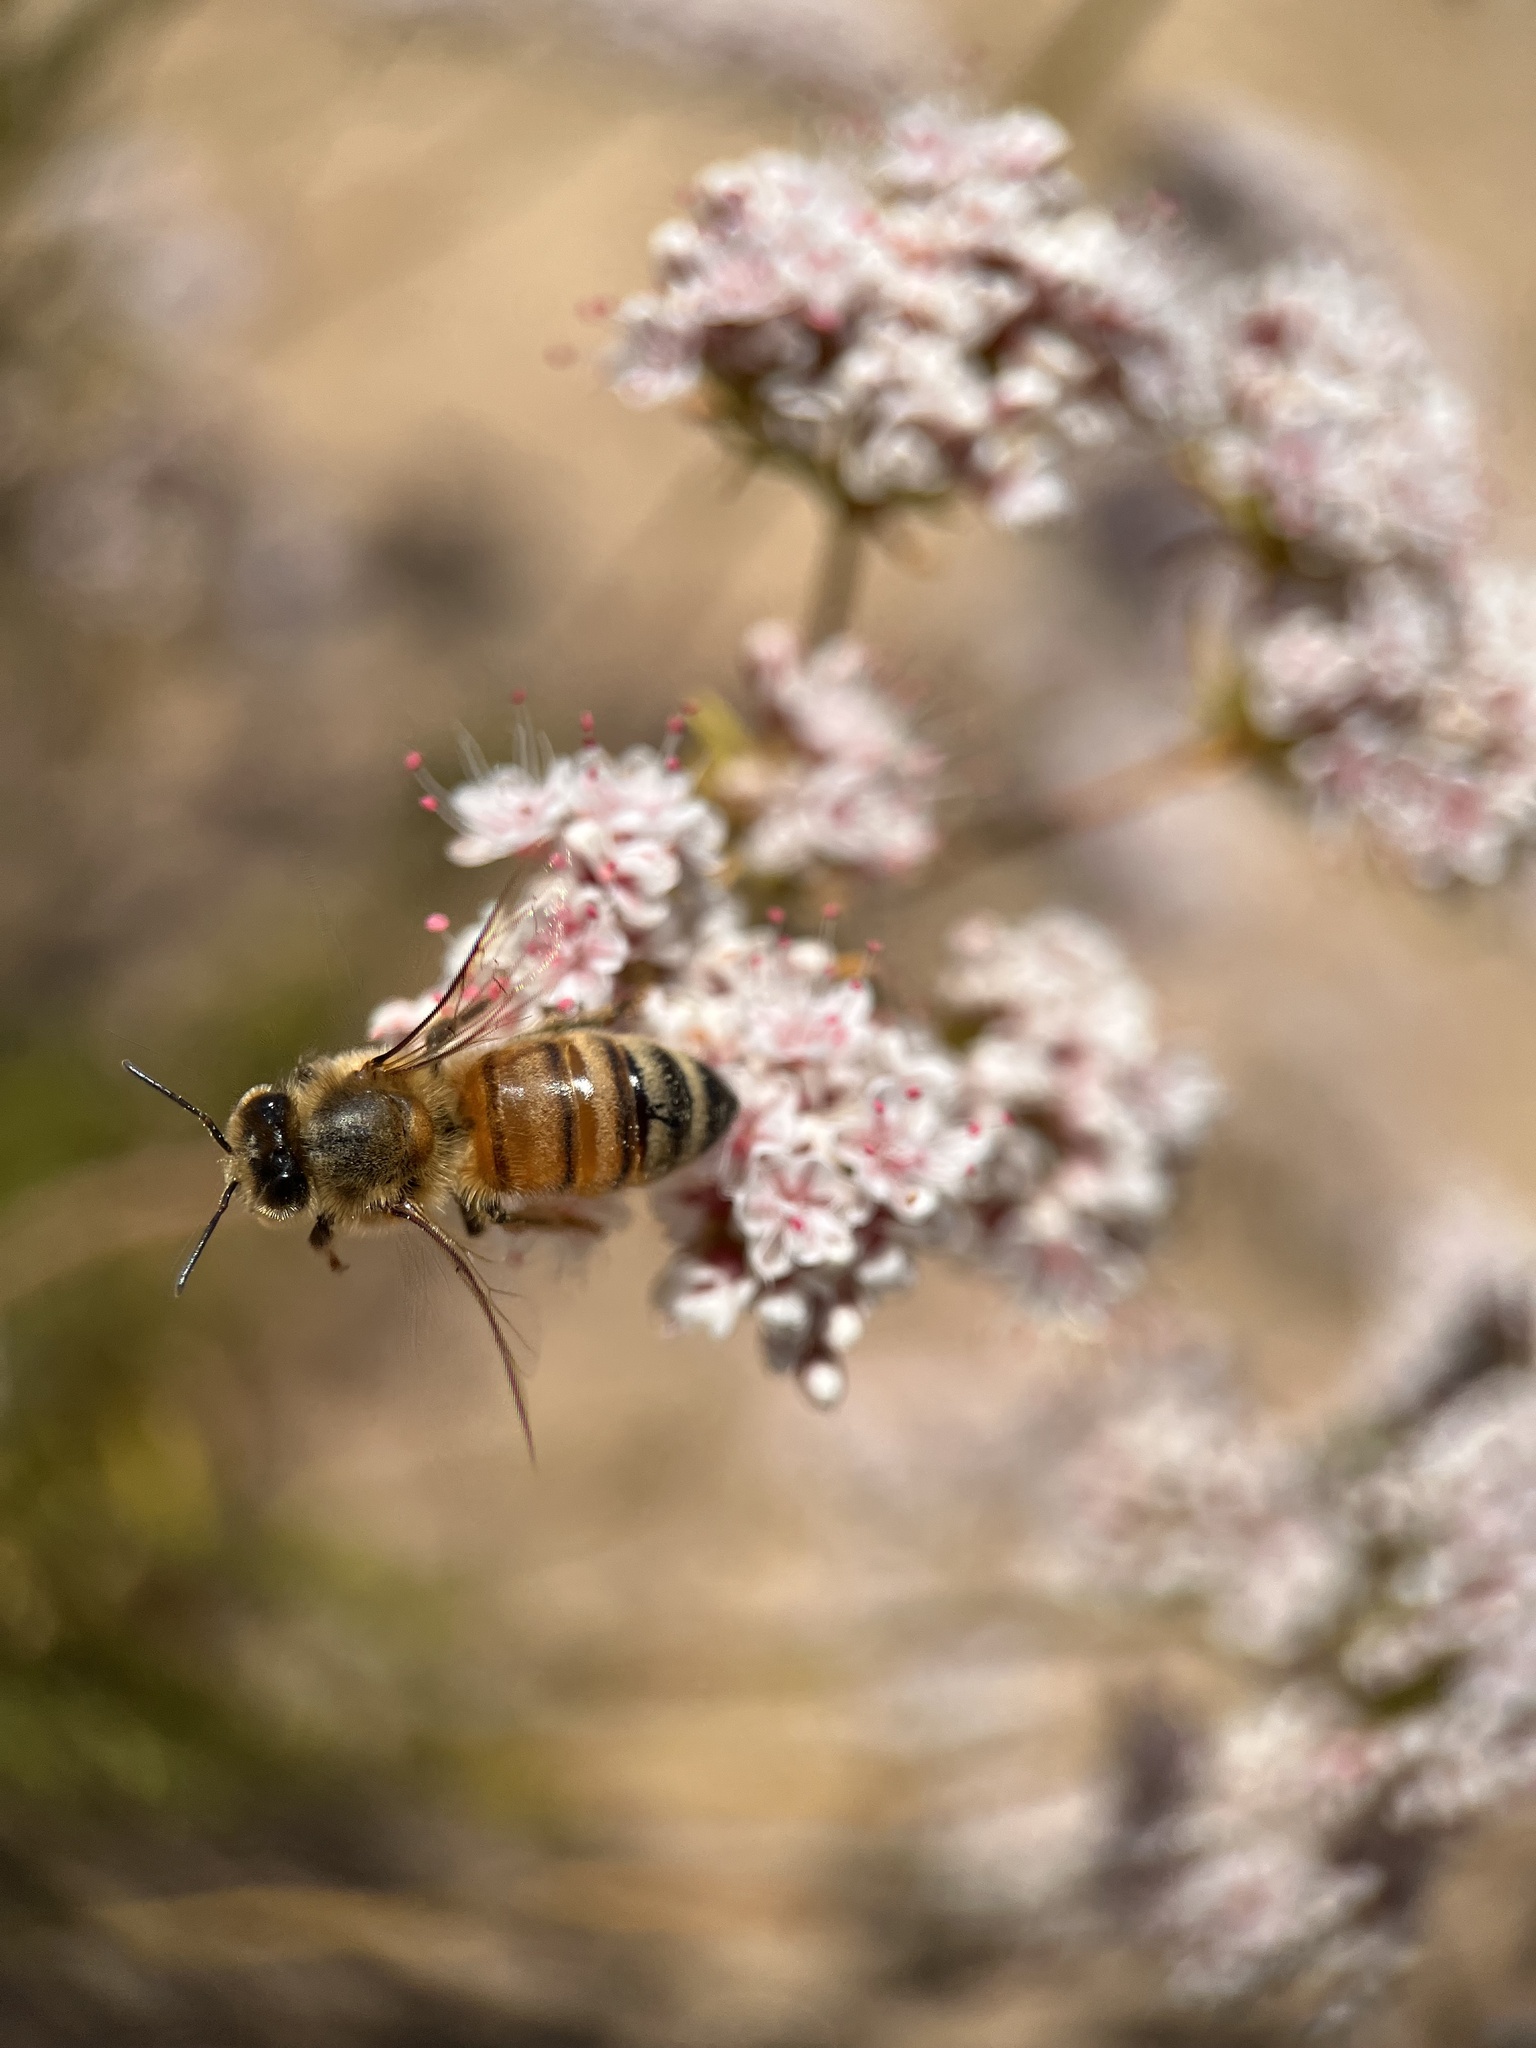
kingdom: Animalia
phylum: Arthropoda
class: Insecta
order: Hymenoptera
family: Apidae
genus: Apis
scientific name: Apis mellifera
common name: Honey bee
